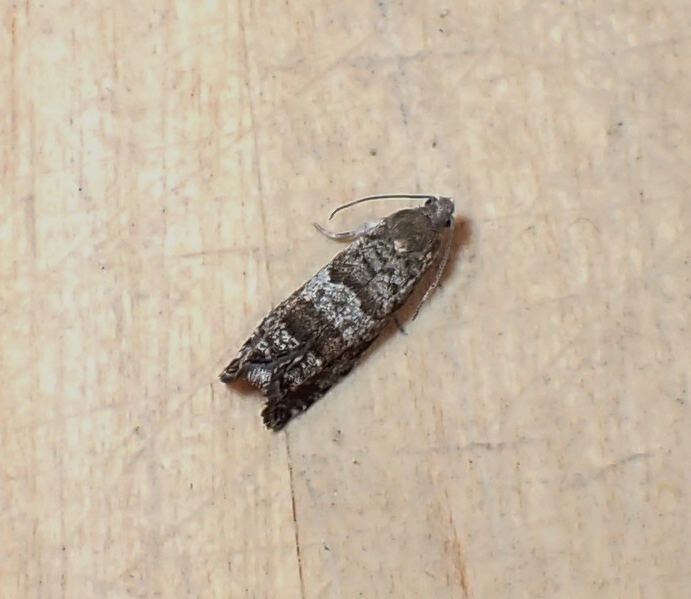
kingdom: Animalia
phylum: Arthropoda
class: Insecta
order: Lepidoptera
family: Tortricidae
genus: Epinotia
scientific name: Epinotia nanana
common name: Leaf roller
